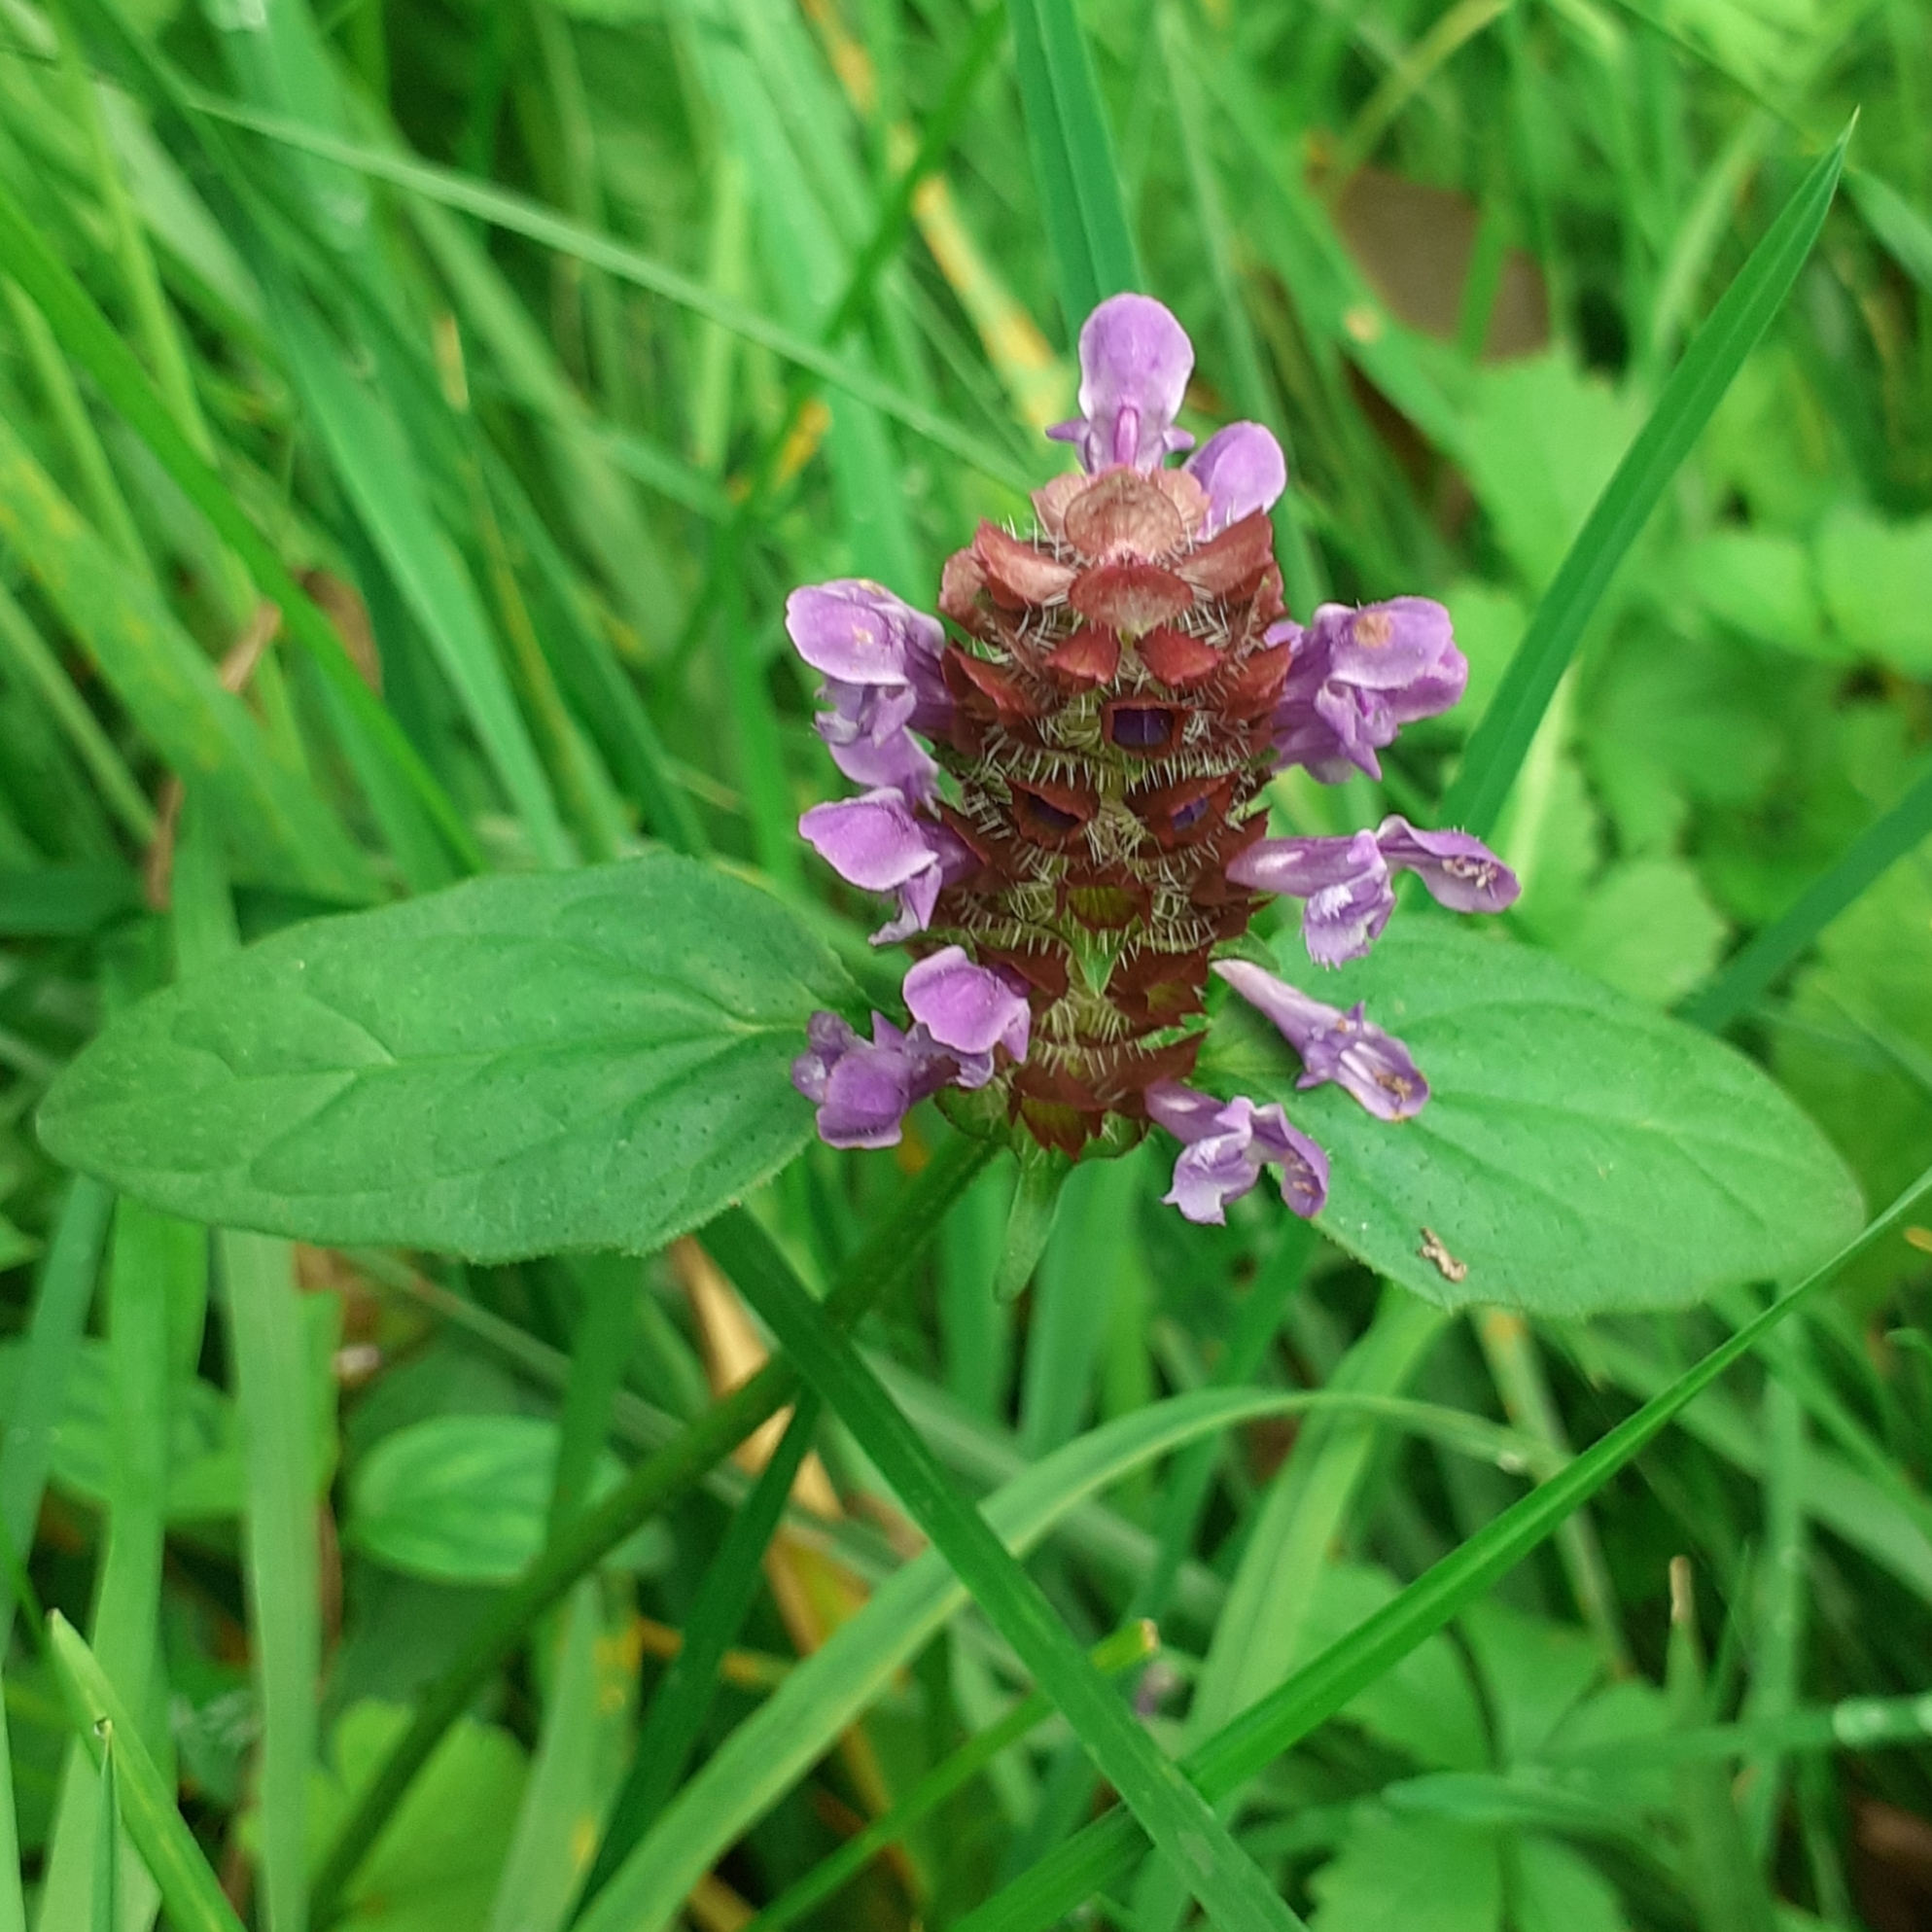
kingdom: Plantae
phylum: Tracheophyta
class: Magnoliopsida
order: Lamiales
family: Lamiaceae
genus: Prunella
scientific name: Prunella vulgaris
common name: Heal-all
